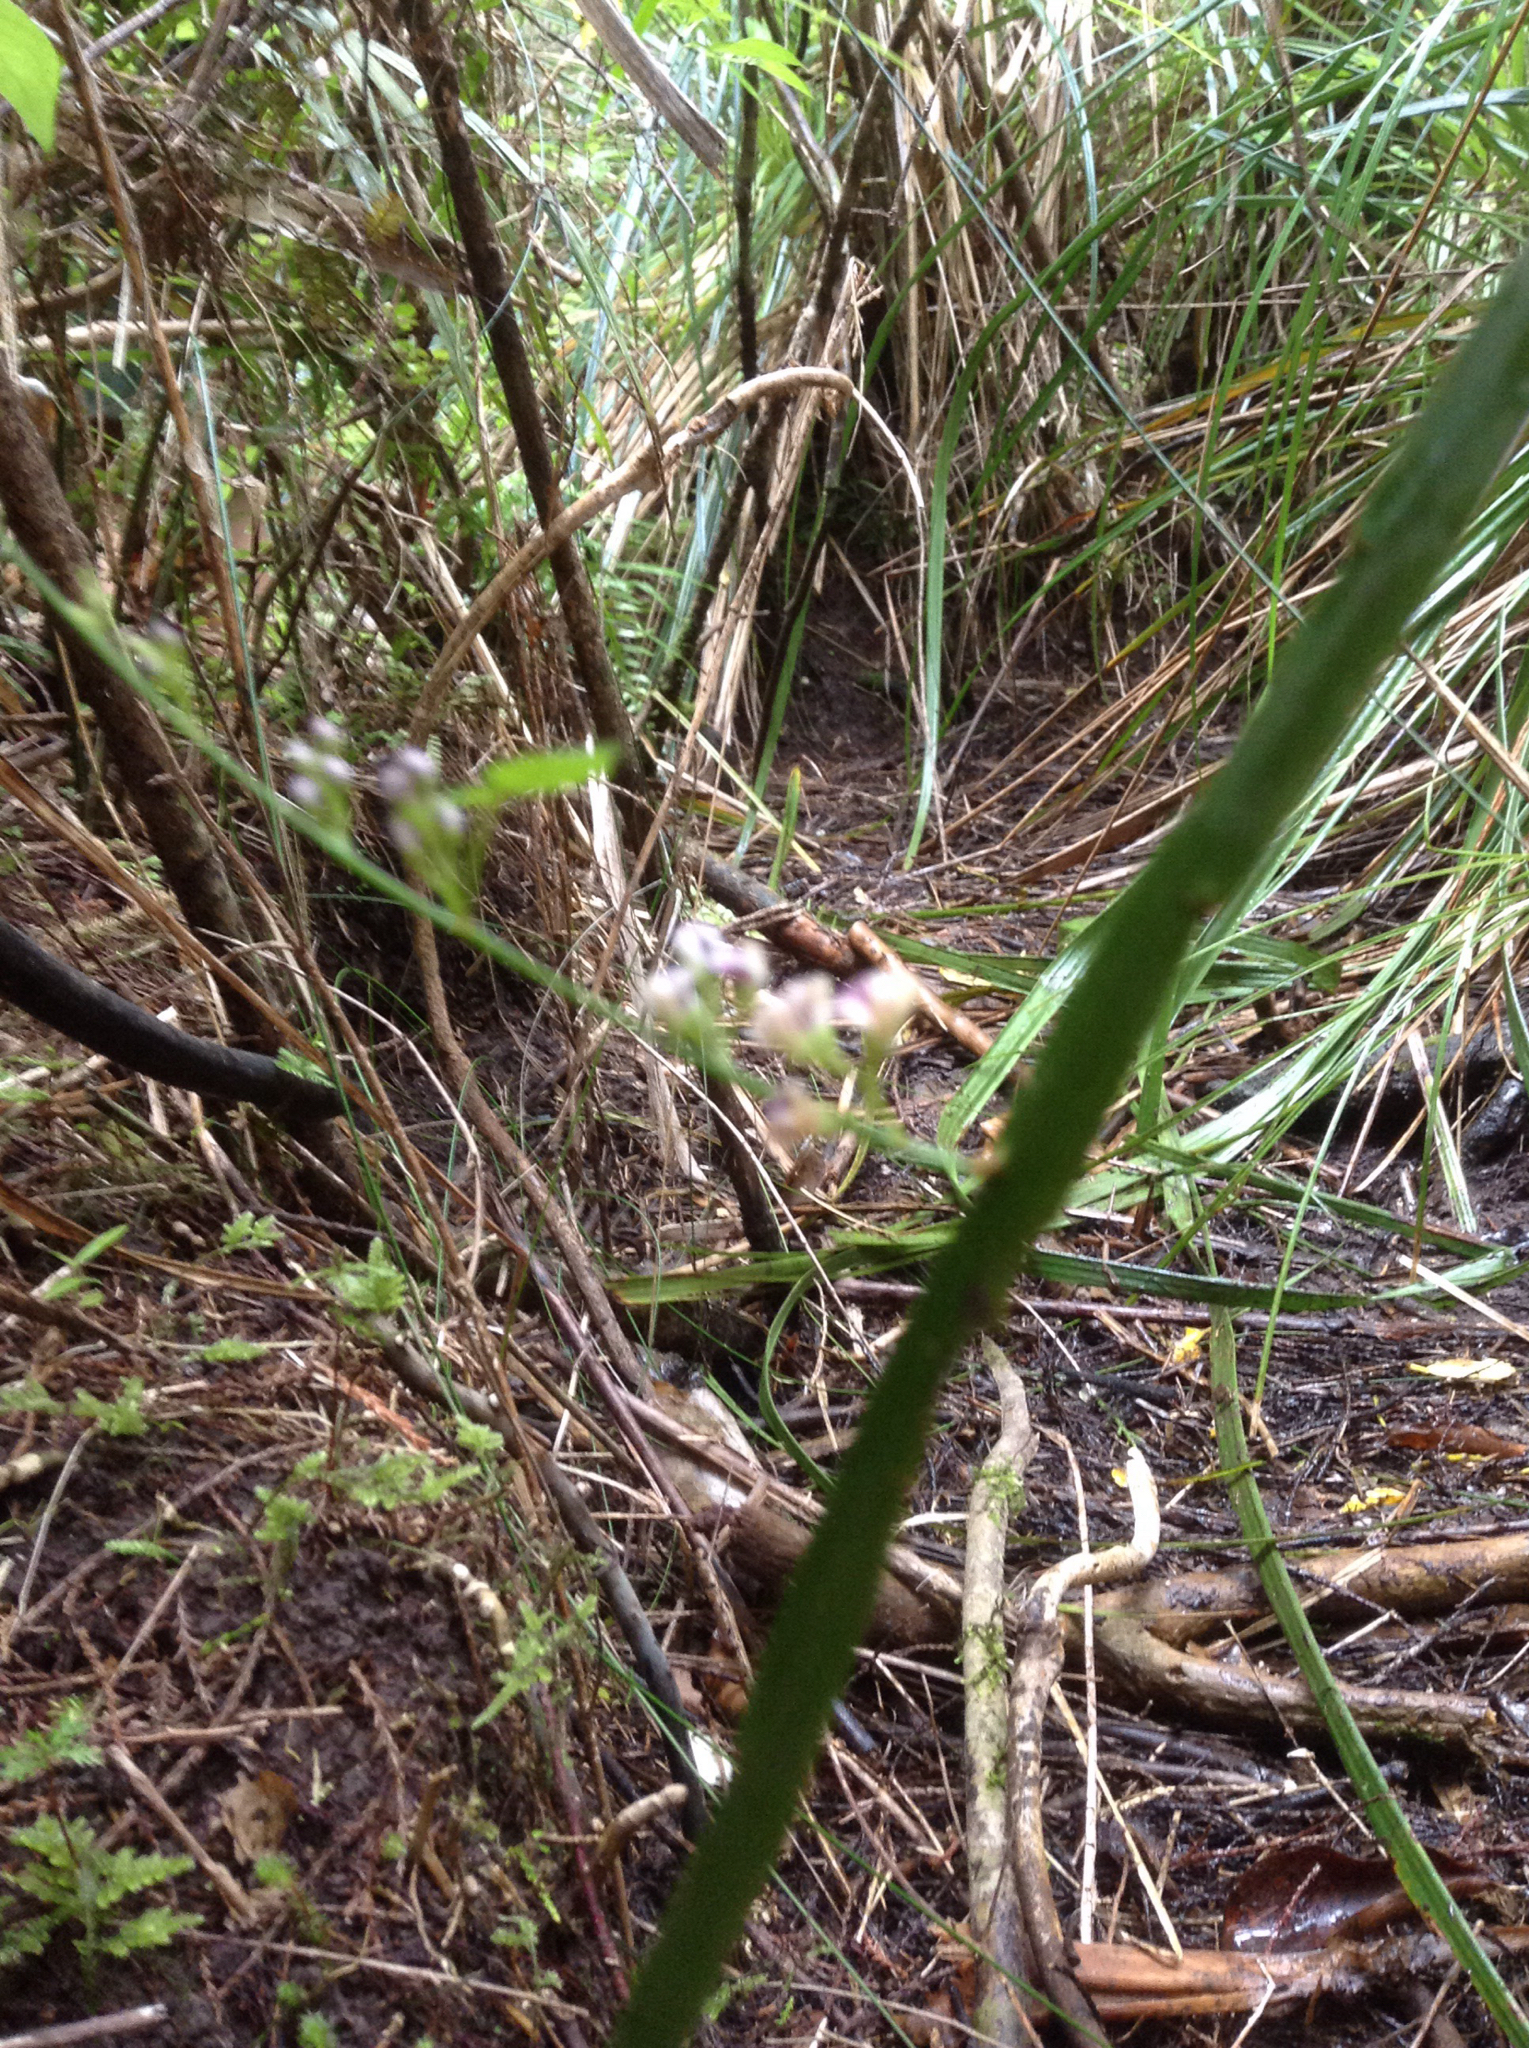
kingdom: Plantae
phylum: Tracheophyta
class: Magnoliopsida
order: Fabales
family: Fabaceae
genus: Carmichaelia
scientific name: Carmichaelia australis
